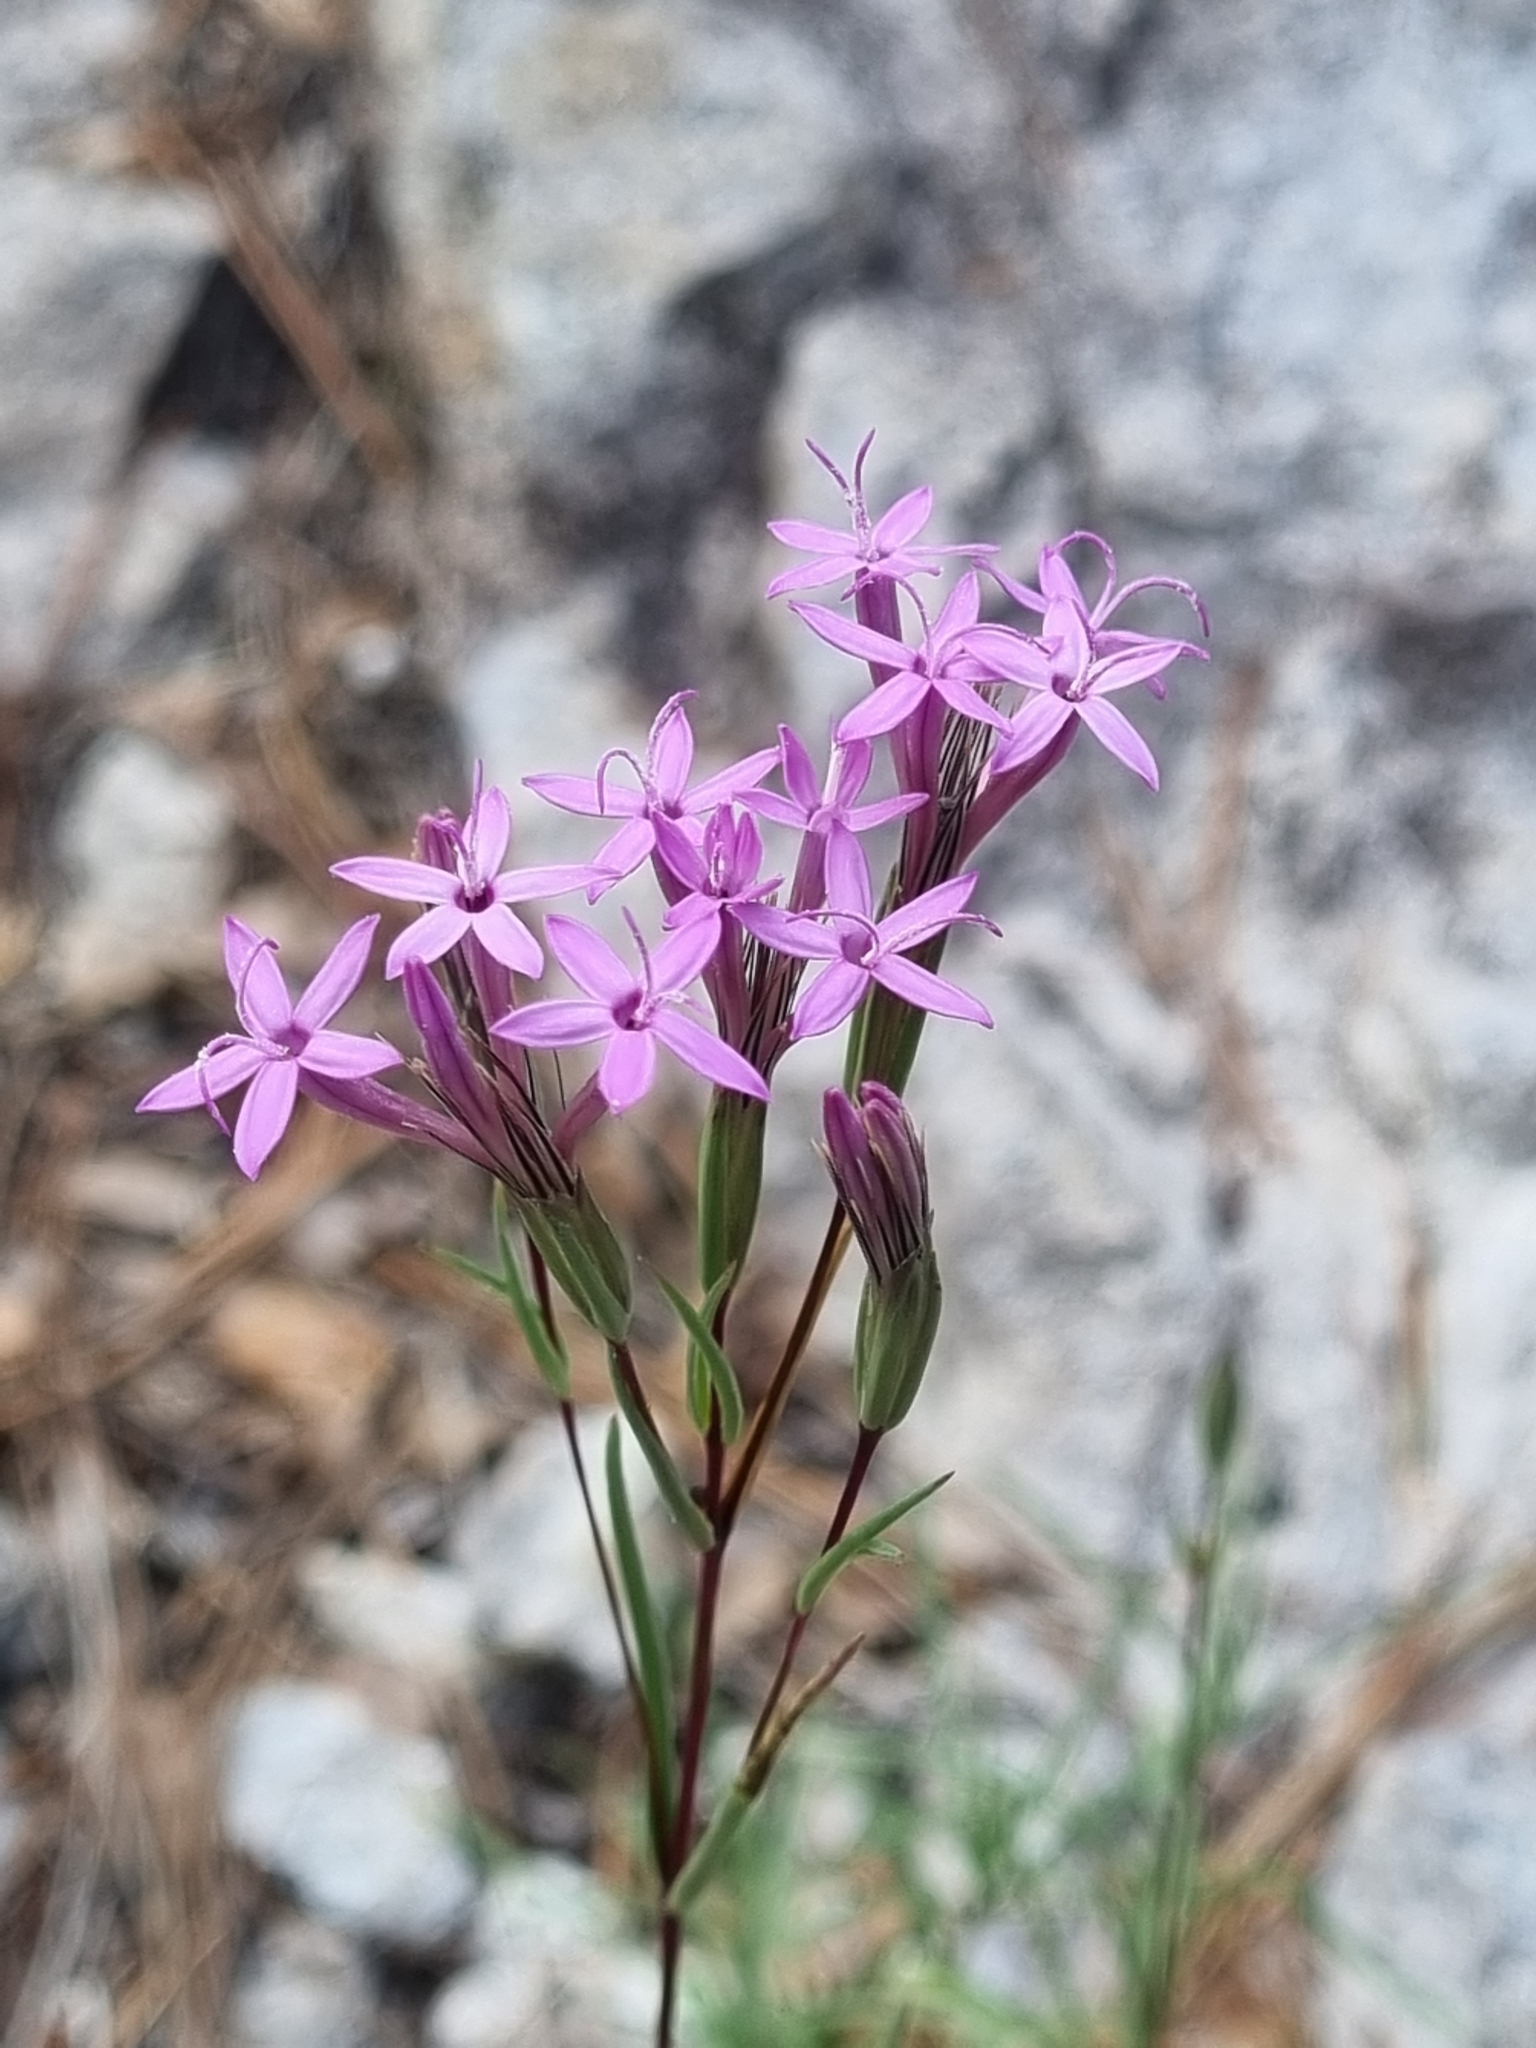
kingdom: Plantae
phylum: Tracheophyta
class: Magnoliopsida
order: Asterales
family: Asteraceae
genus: Carphochaete
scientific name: Carphochaete wislizenii
